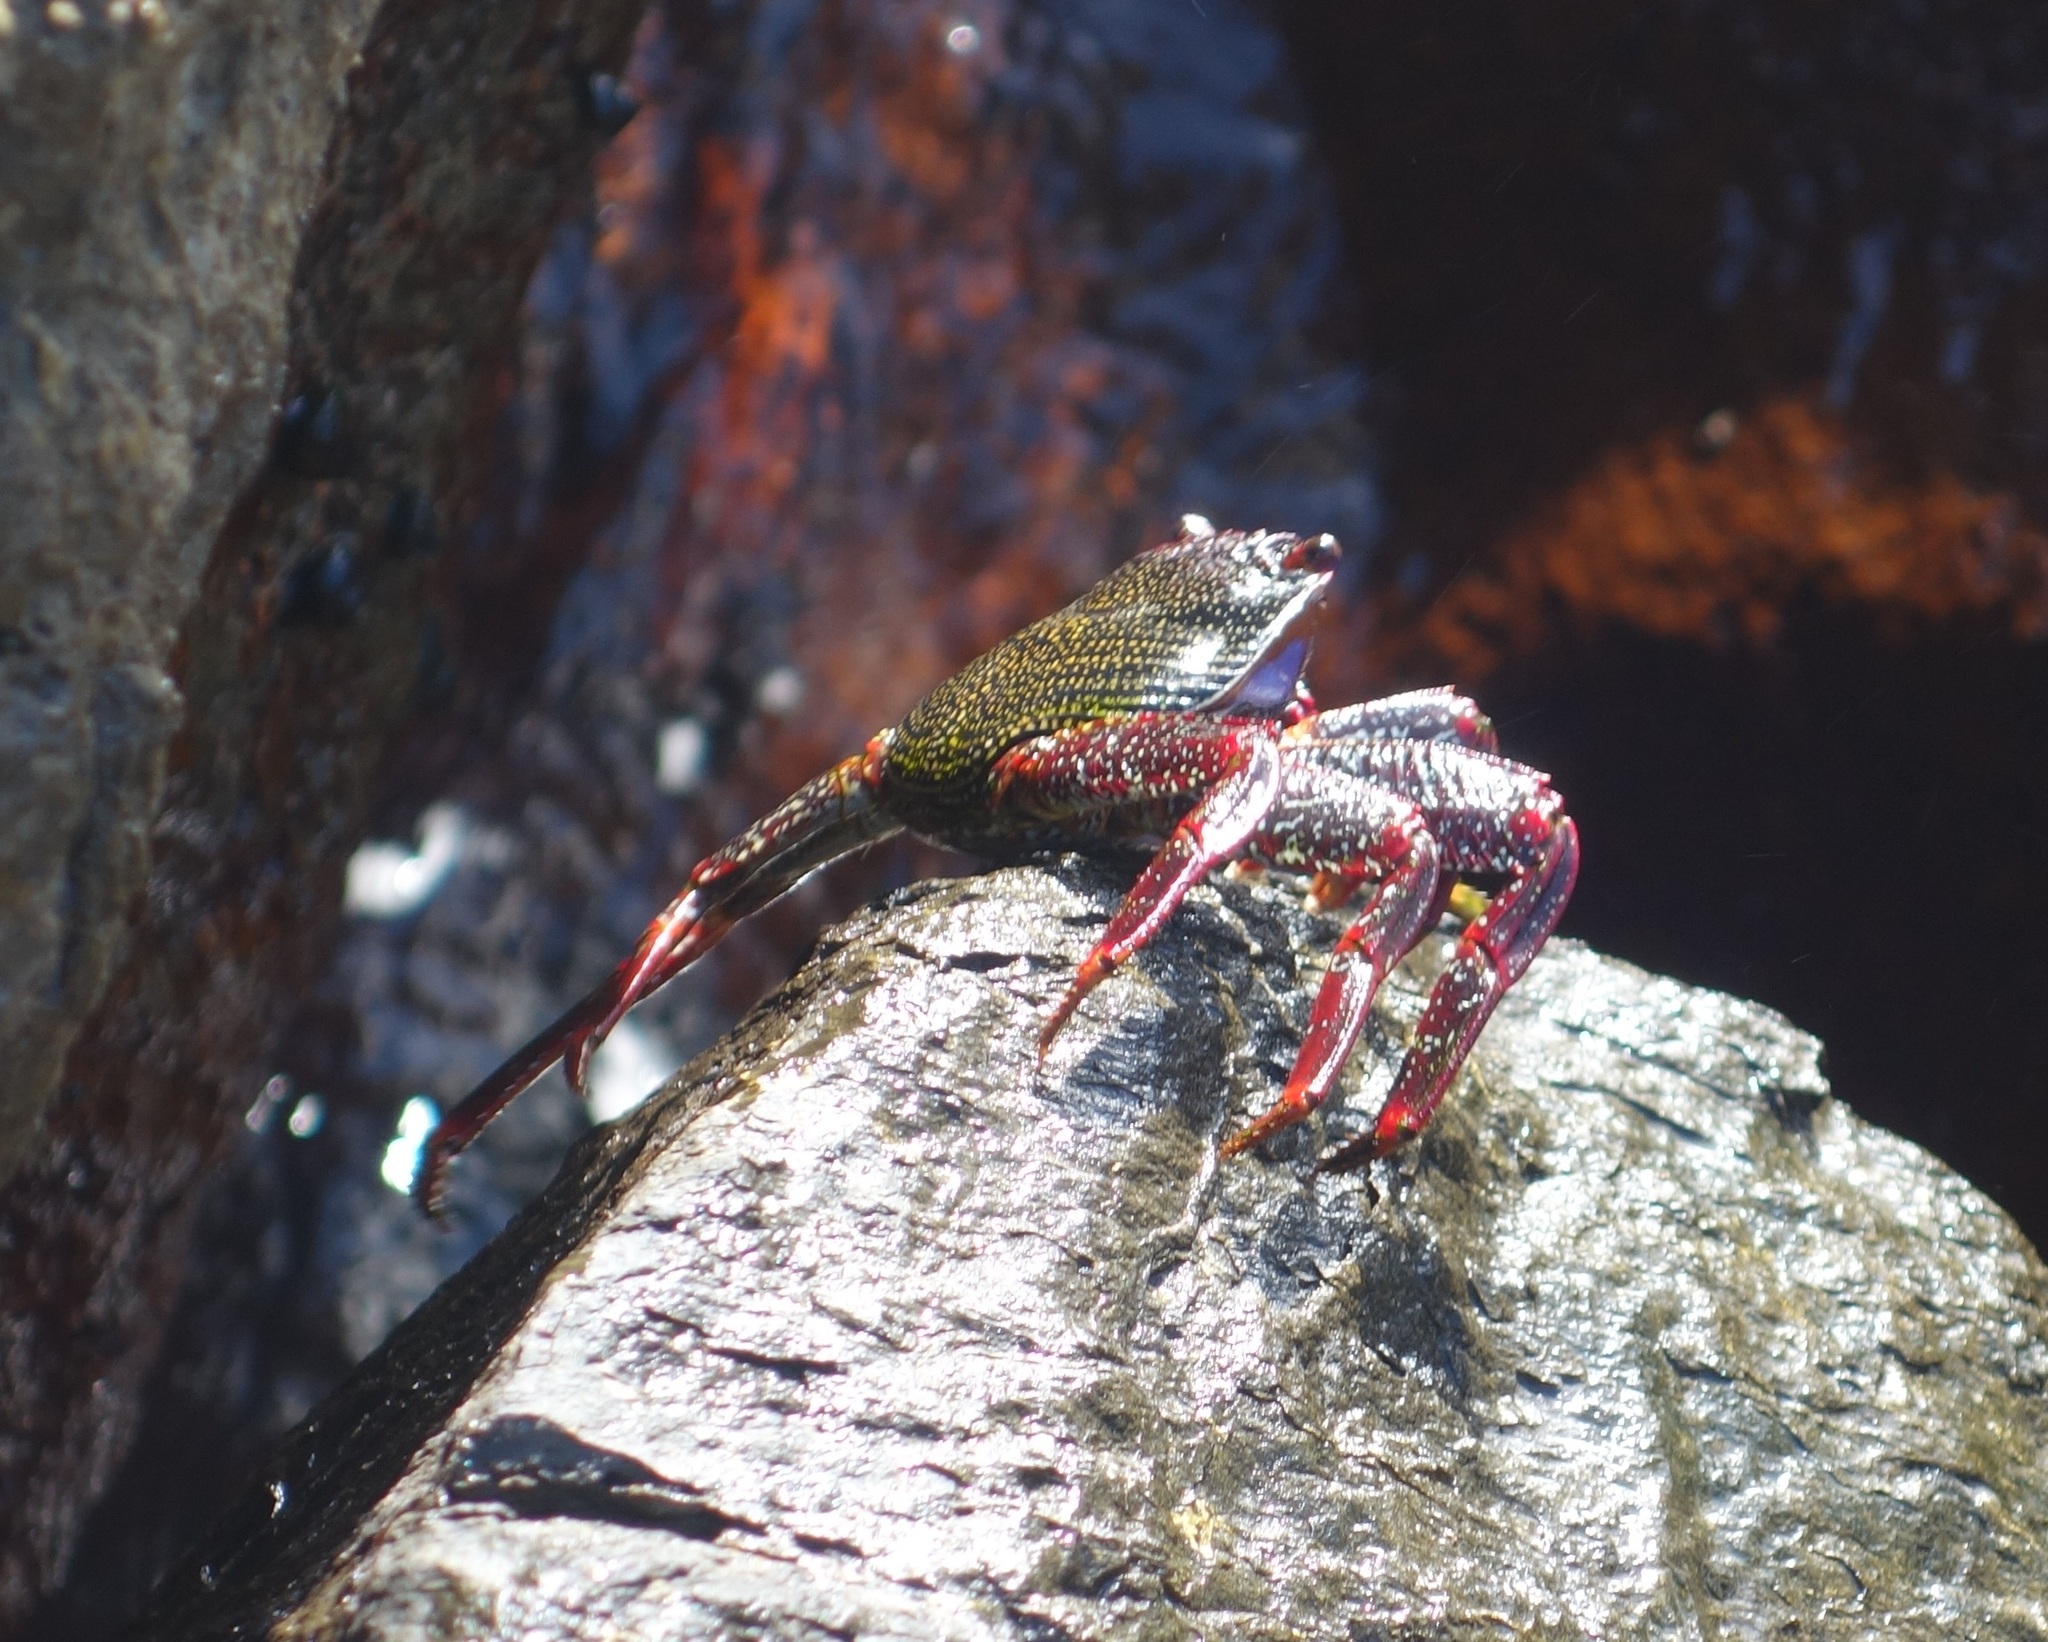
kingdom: Animalia
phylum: Arthropoda
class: Malacostraca
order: Decapoda
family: Grapsidae
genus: Grapsus
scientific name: Grapsus adscensionis
